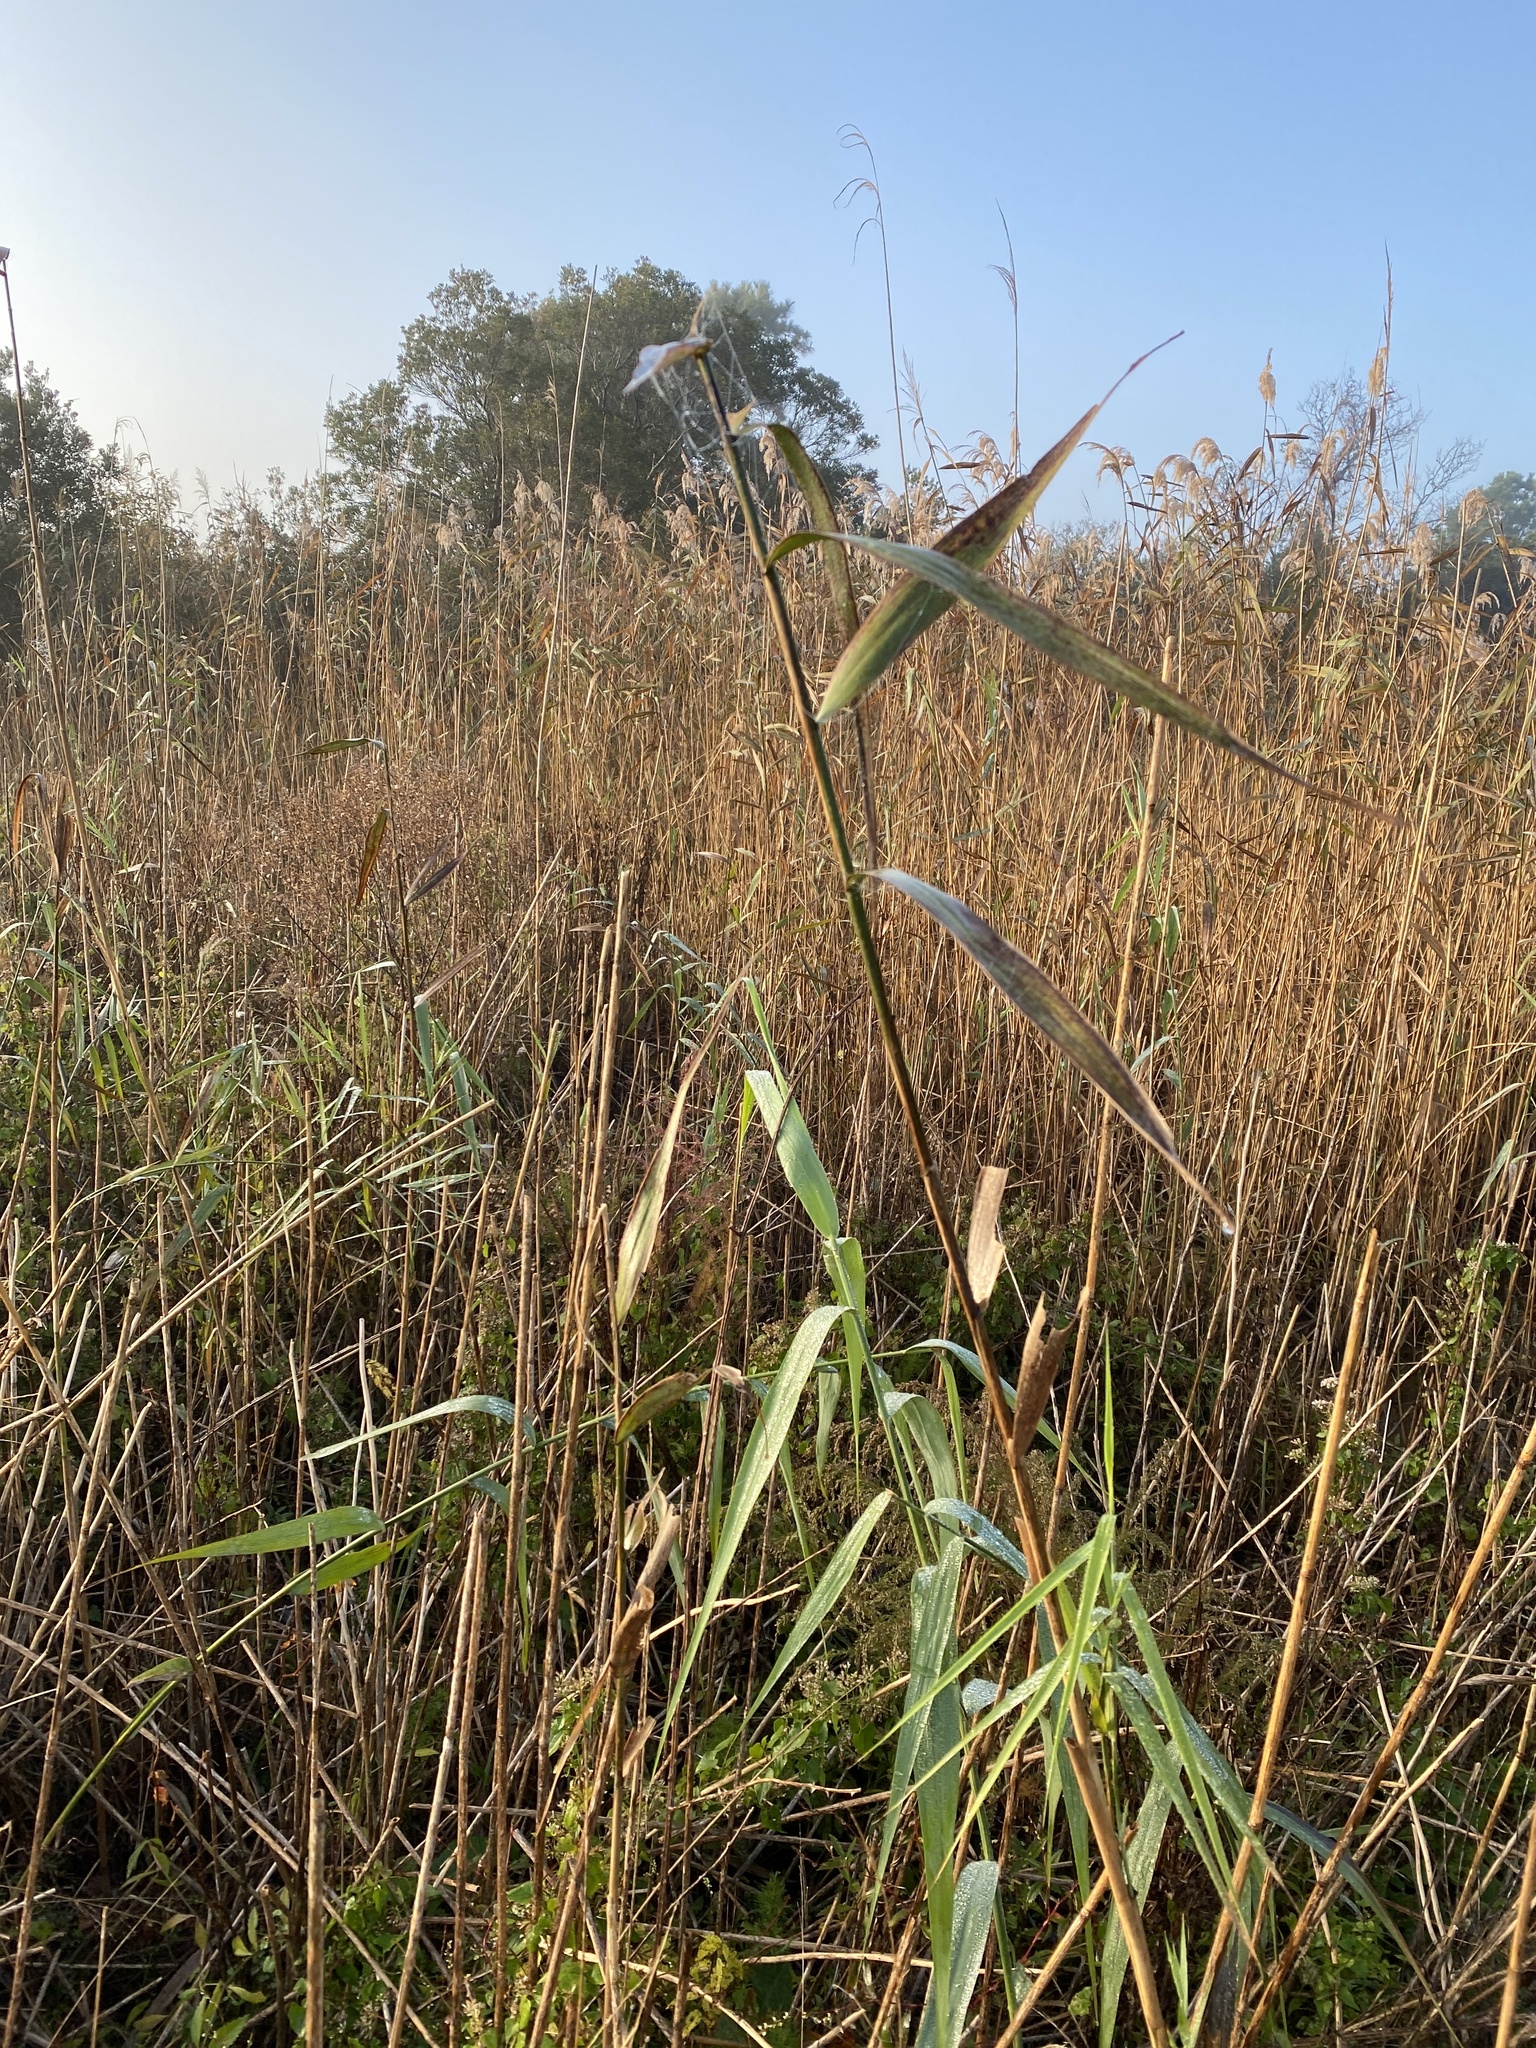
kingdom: Plantae
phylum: Tracheophyta
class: Liliopsida
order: Poales
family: Poaceae
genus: Phragmites
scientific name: Phragmites australis
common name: Common reed
